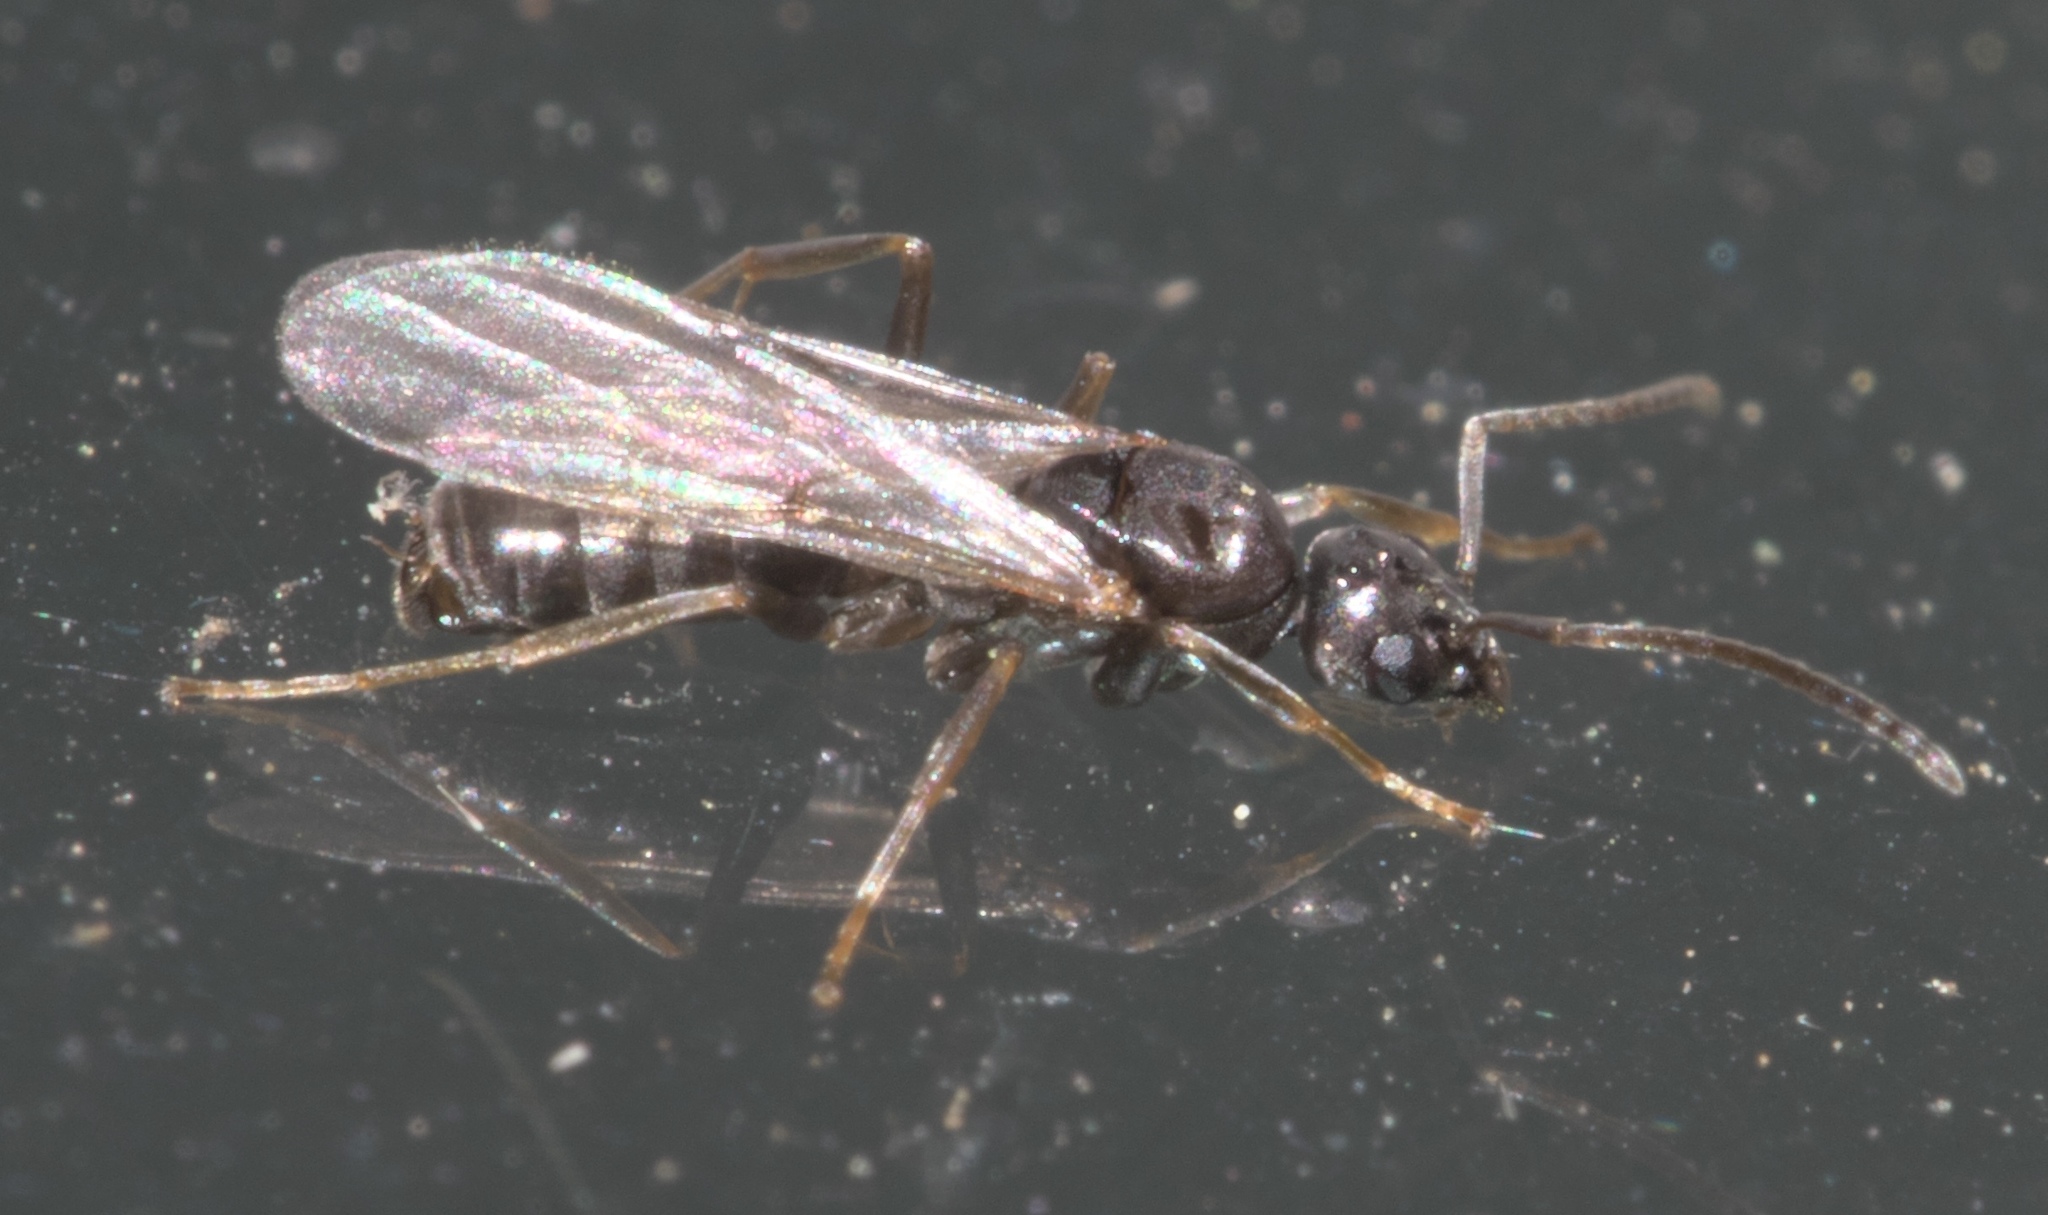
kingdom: Animalia
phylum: Arthropoda
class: Insecta
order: Hymenoptera
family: Formicidae
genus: Tapinoma
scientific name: Tapinoma sessile
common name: Odorous house ant
